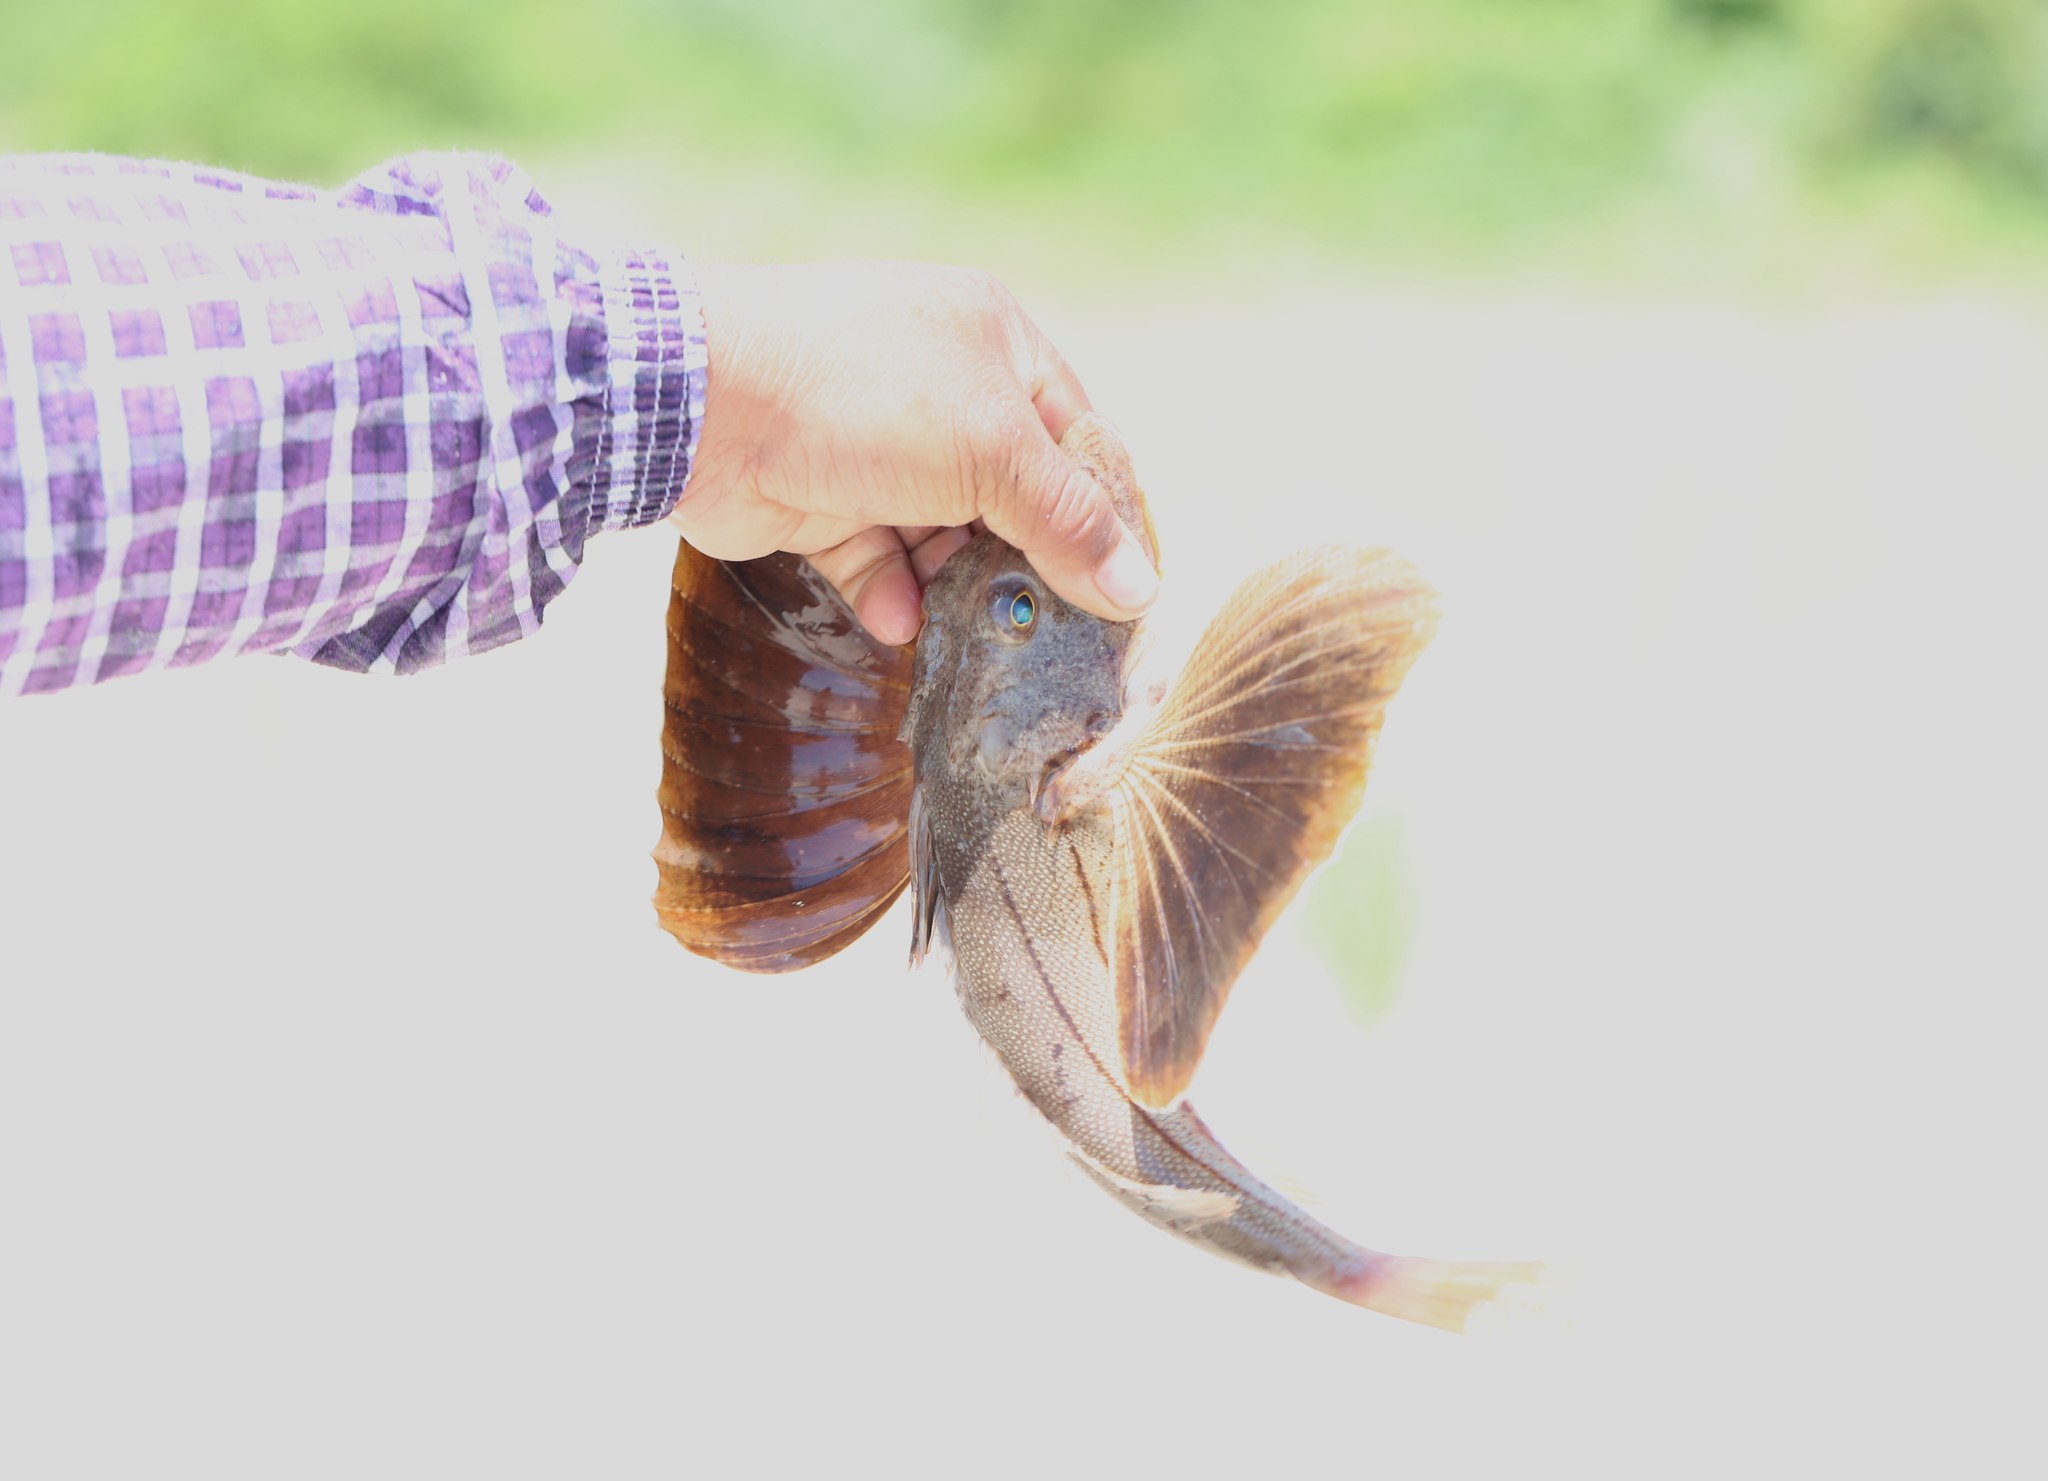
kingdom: Animalia
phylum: Chordata
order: Scorpaeniformes
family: Triglidae
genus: Prionotus
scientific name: Prionotus evolans
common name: Striped searobin
